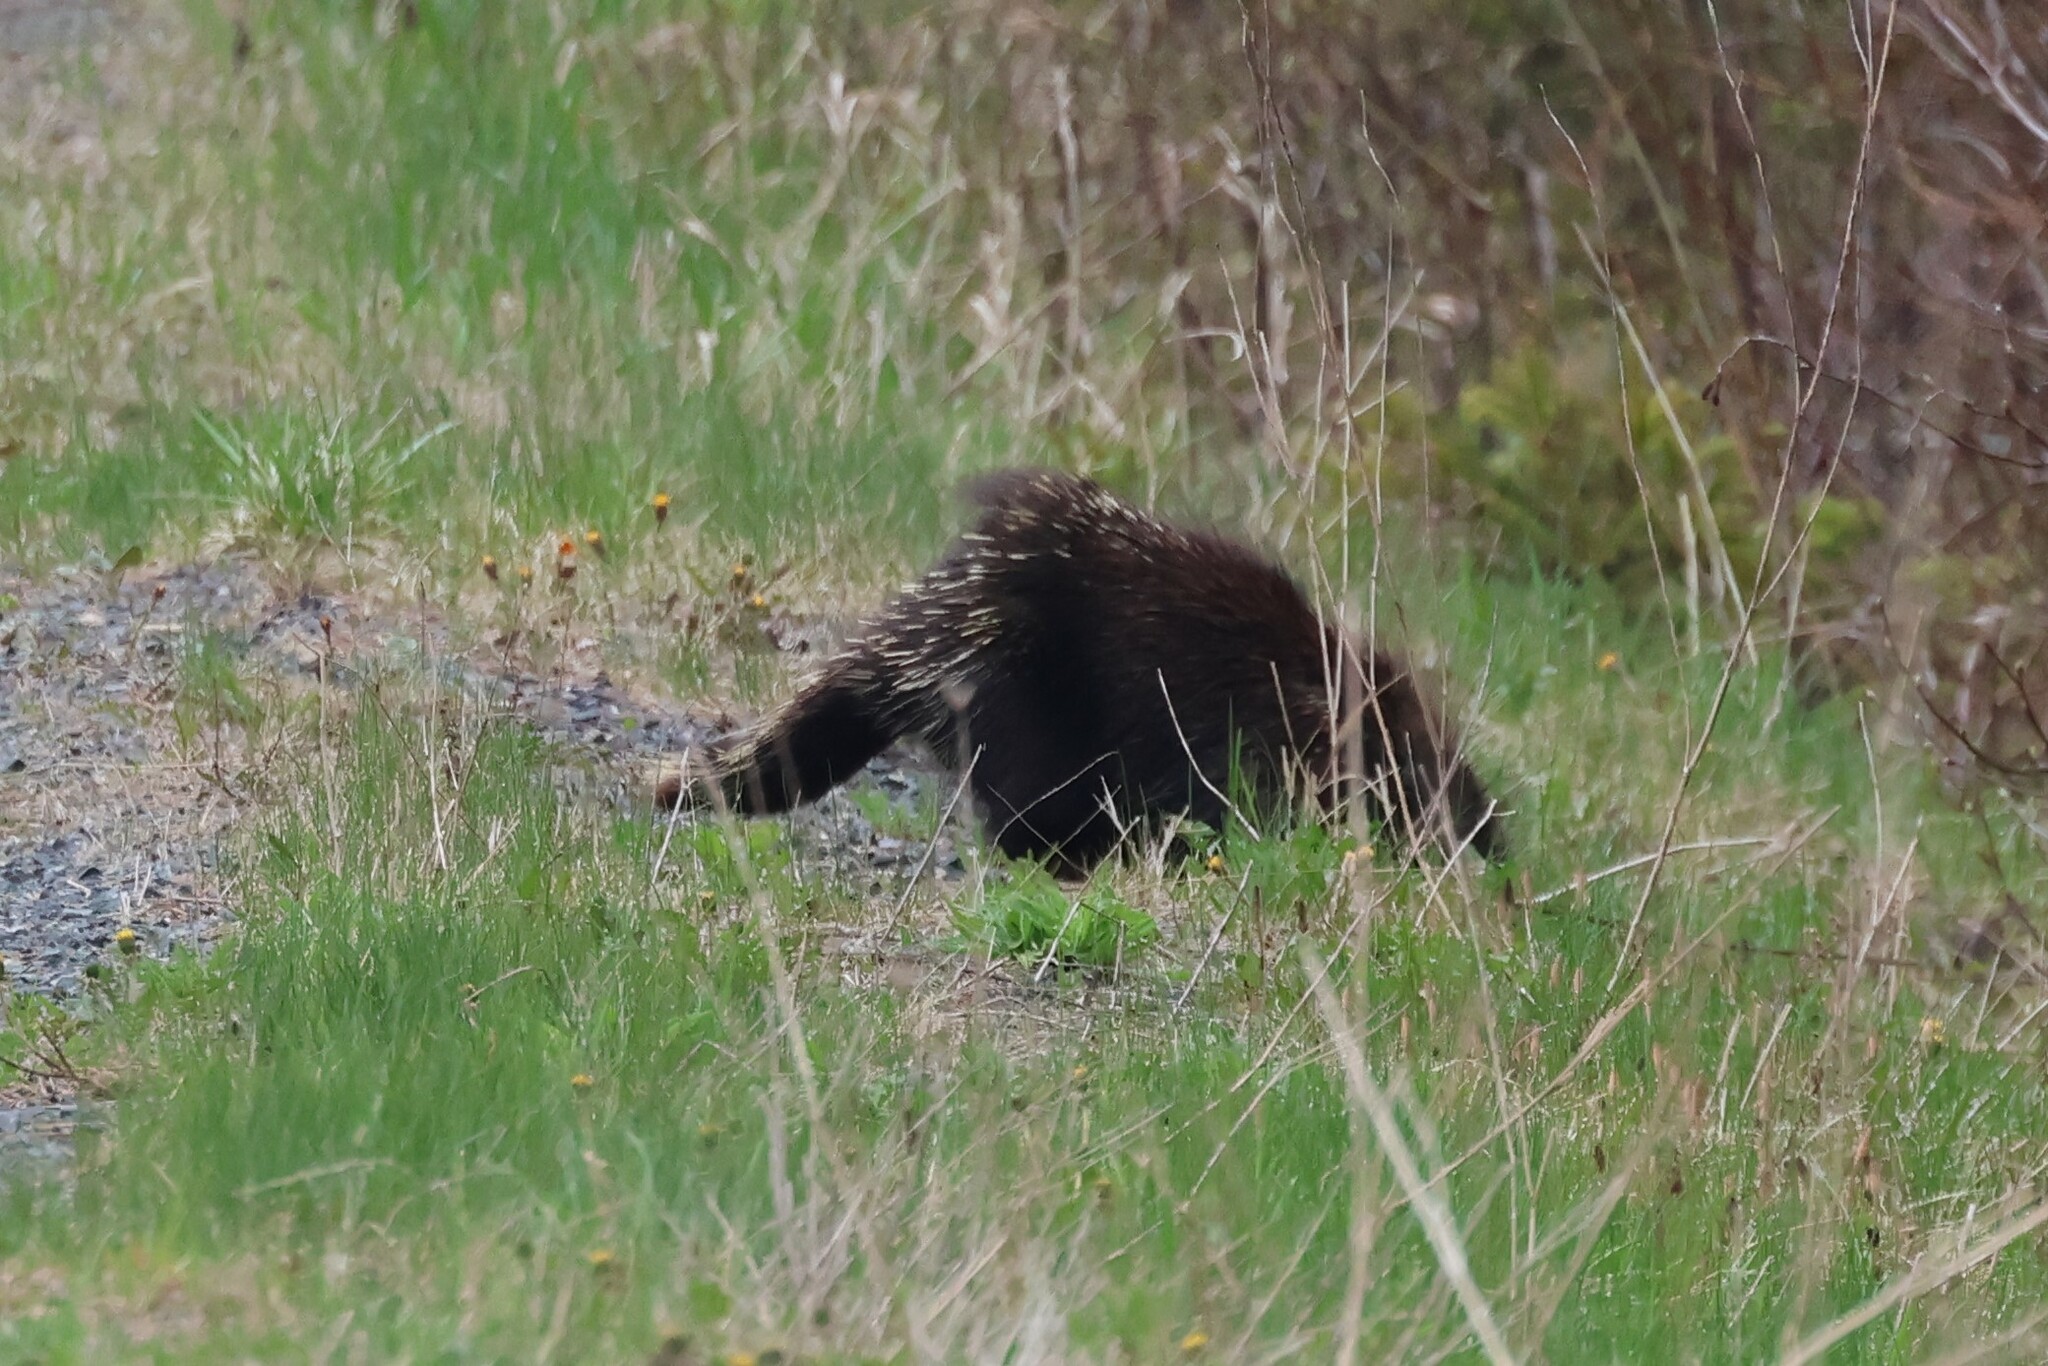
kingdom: Animalia
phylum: Chordata
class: Mammalia
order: Rodentia
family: Erethizontidae
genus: Erethizon
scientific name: Erethizon dorsatus
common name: North american porcupine
